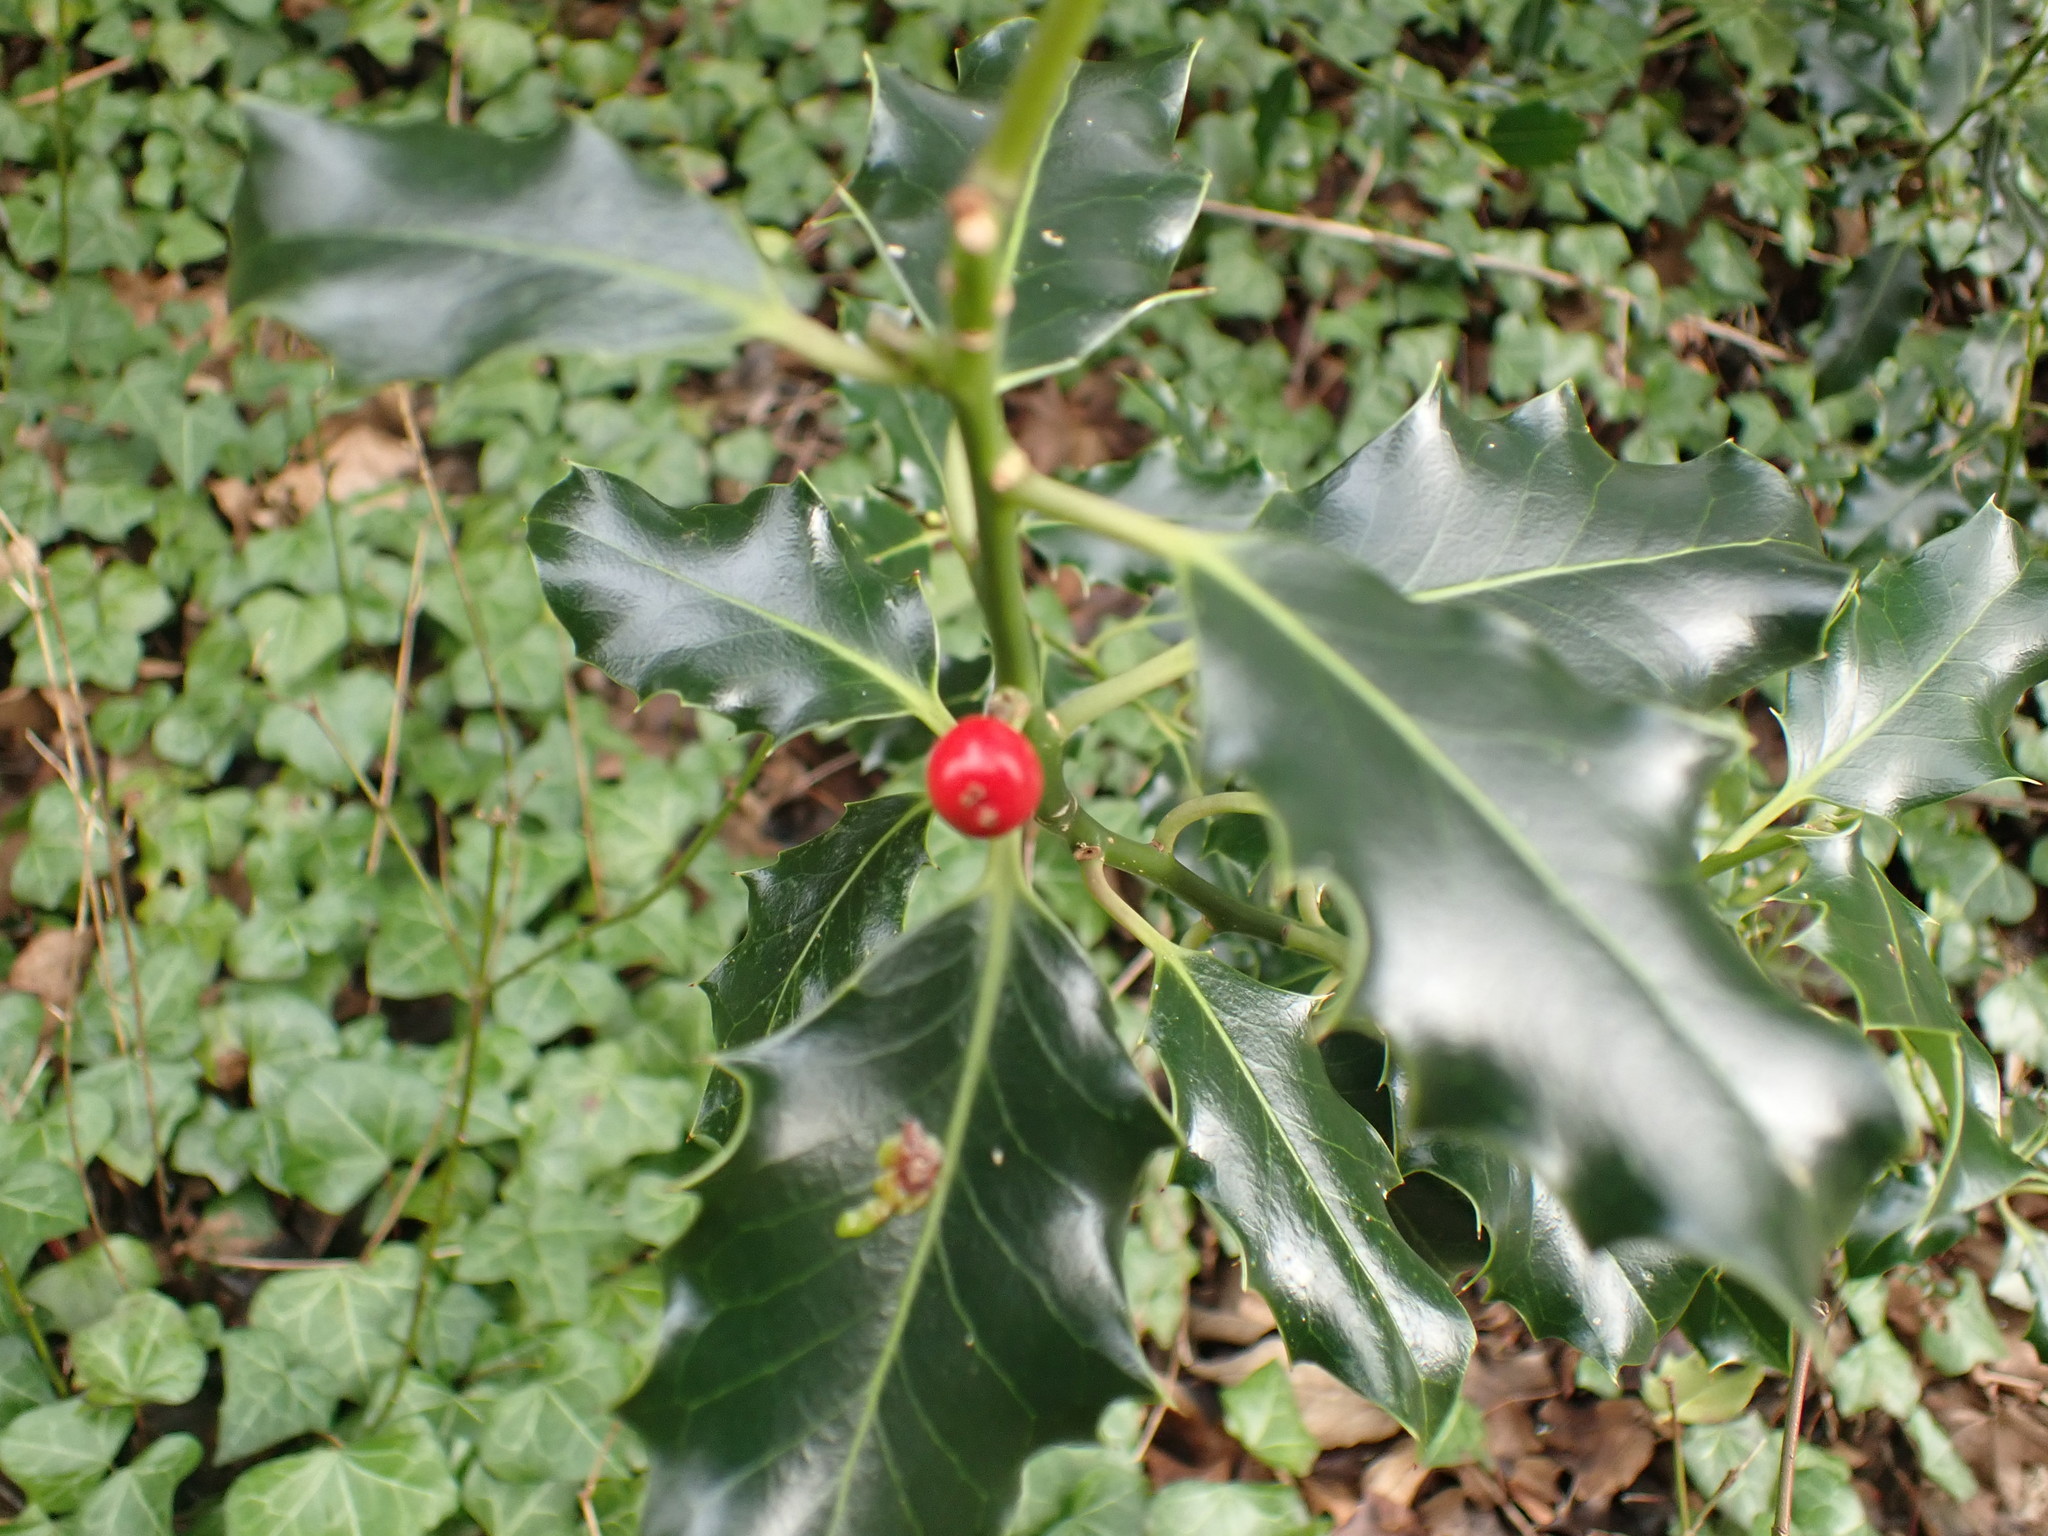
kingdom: Plantae
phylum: Tracheophyta
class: Magnoliopsida
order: Aquifoliales
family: Aquifoliaceae
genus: Ilex
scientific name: Ilex aquifolium
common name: English holly
